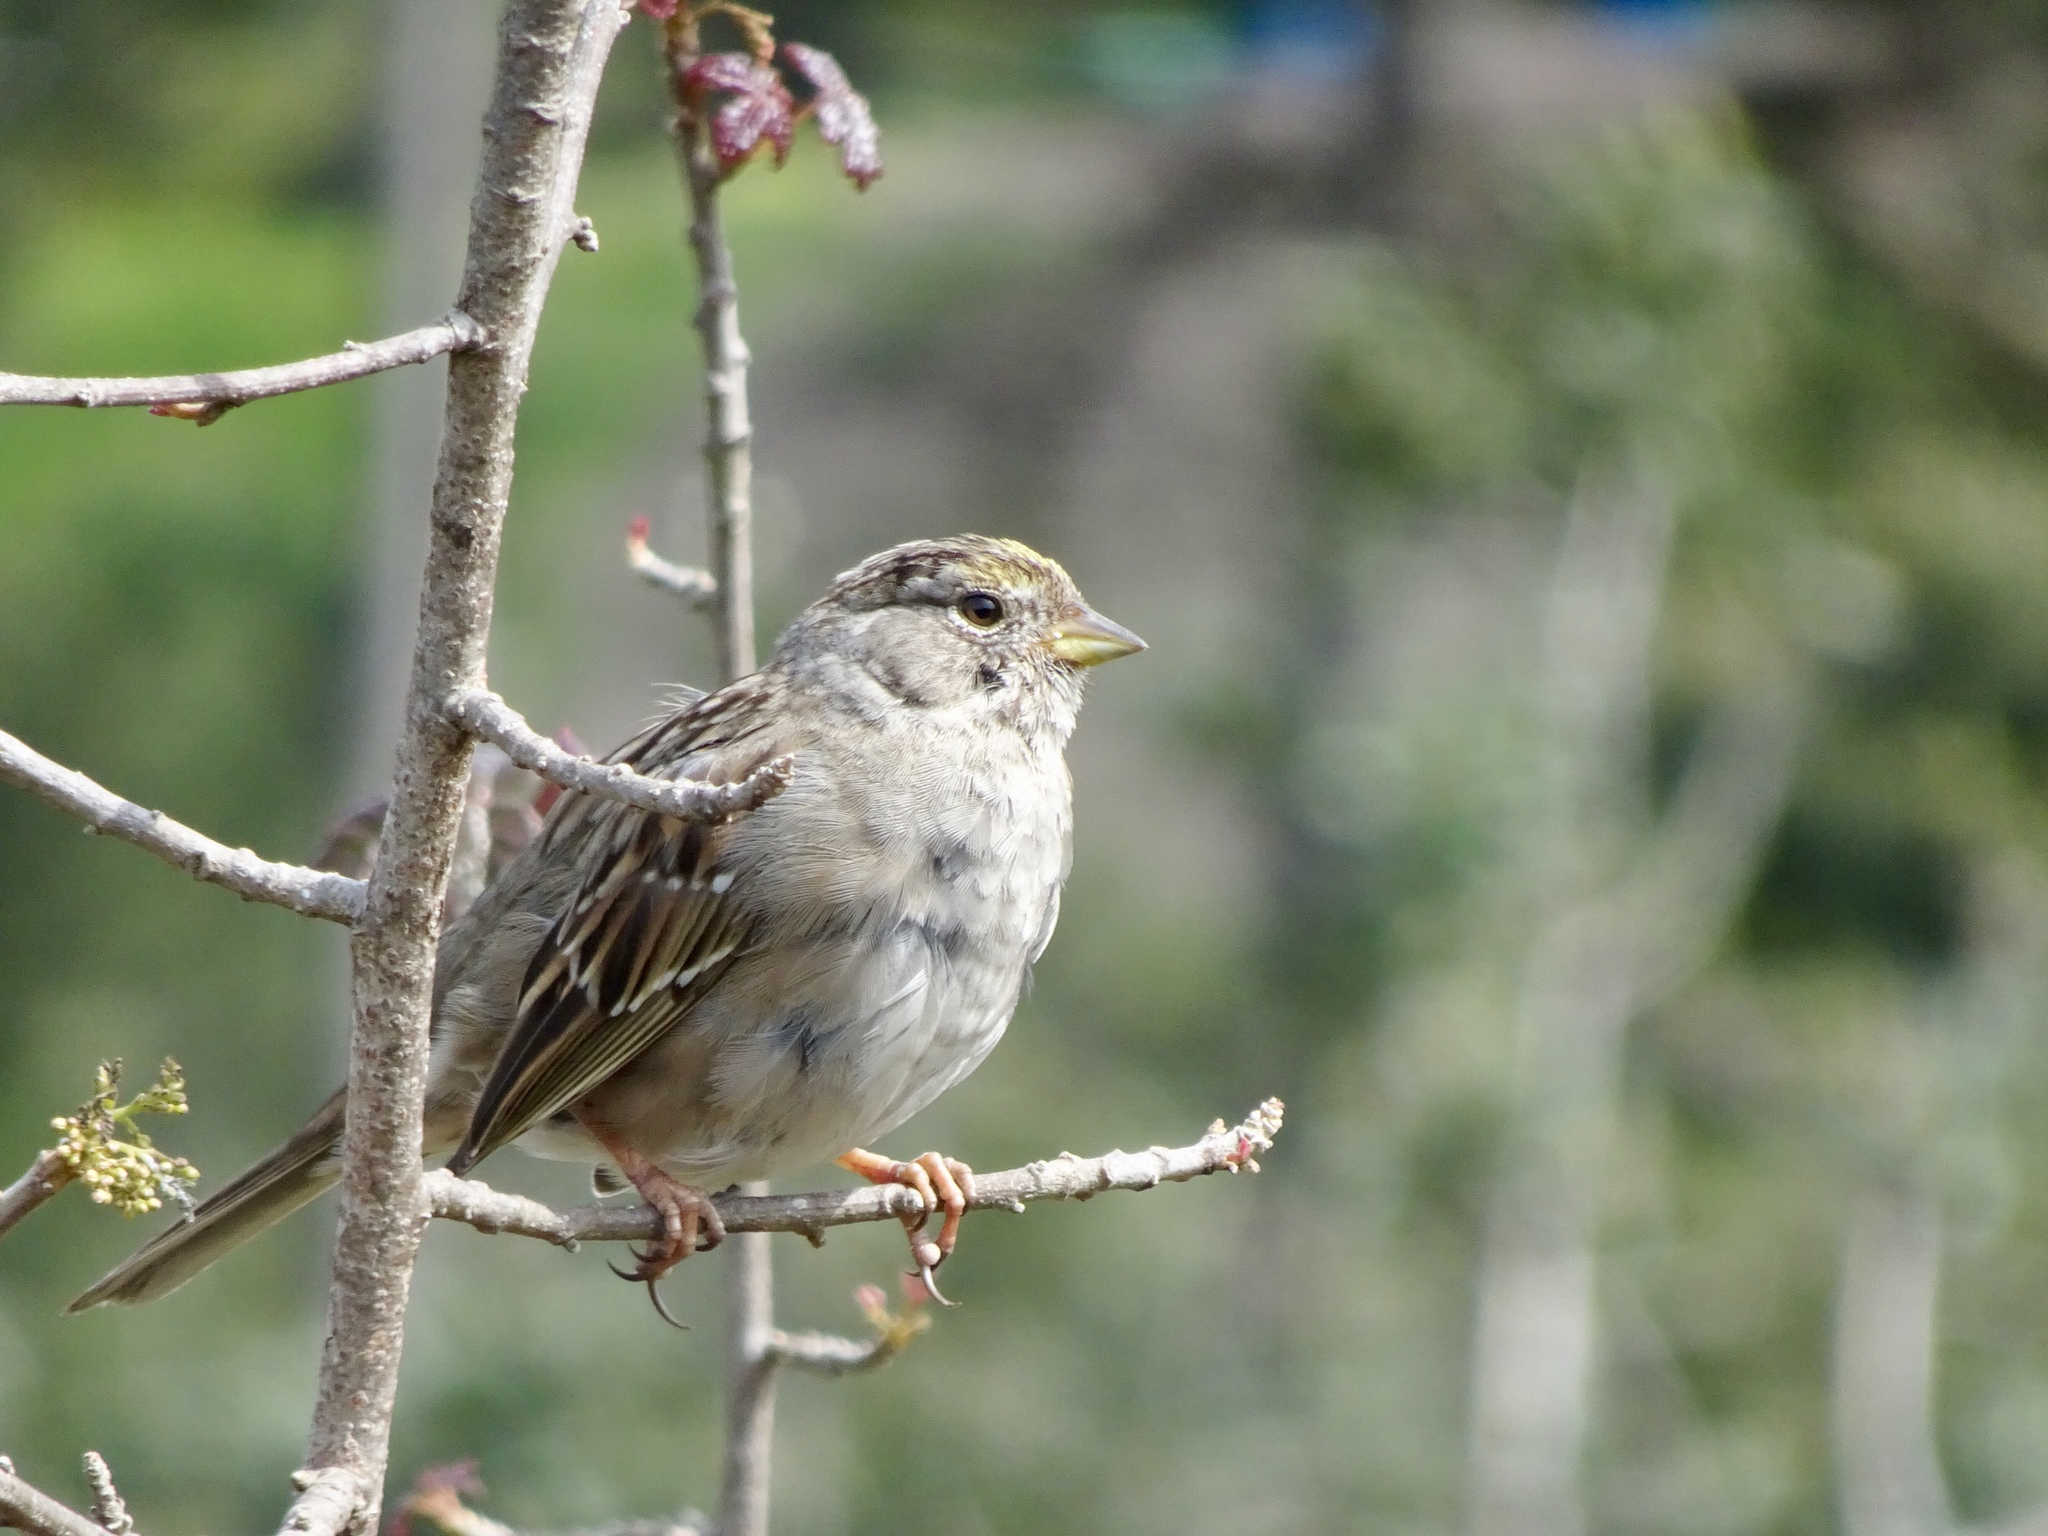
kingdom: Animalia
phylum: Chordata
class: Aves
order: Passeriformes
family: Passerellidae
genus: Zonotrichia
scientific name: Zonotrichia atricapilla
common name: Golden-crowned sparrow
